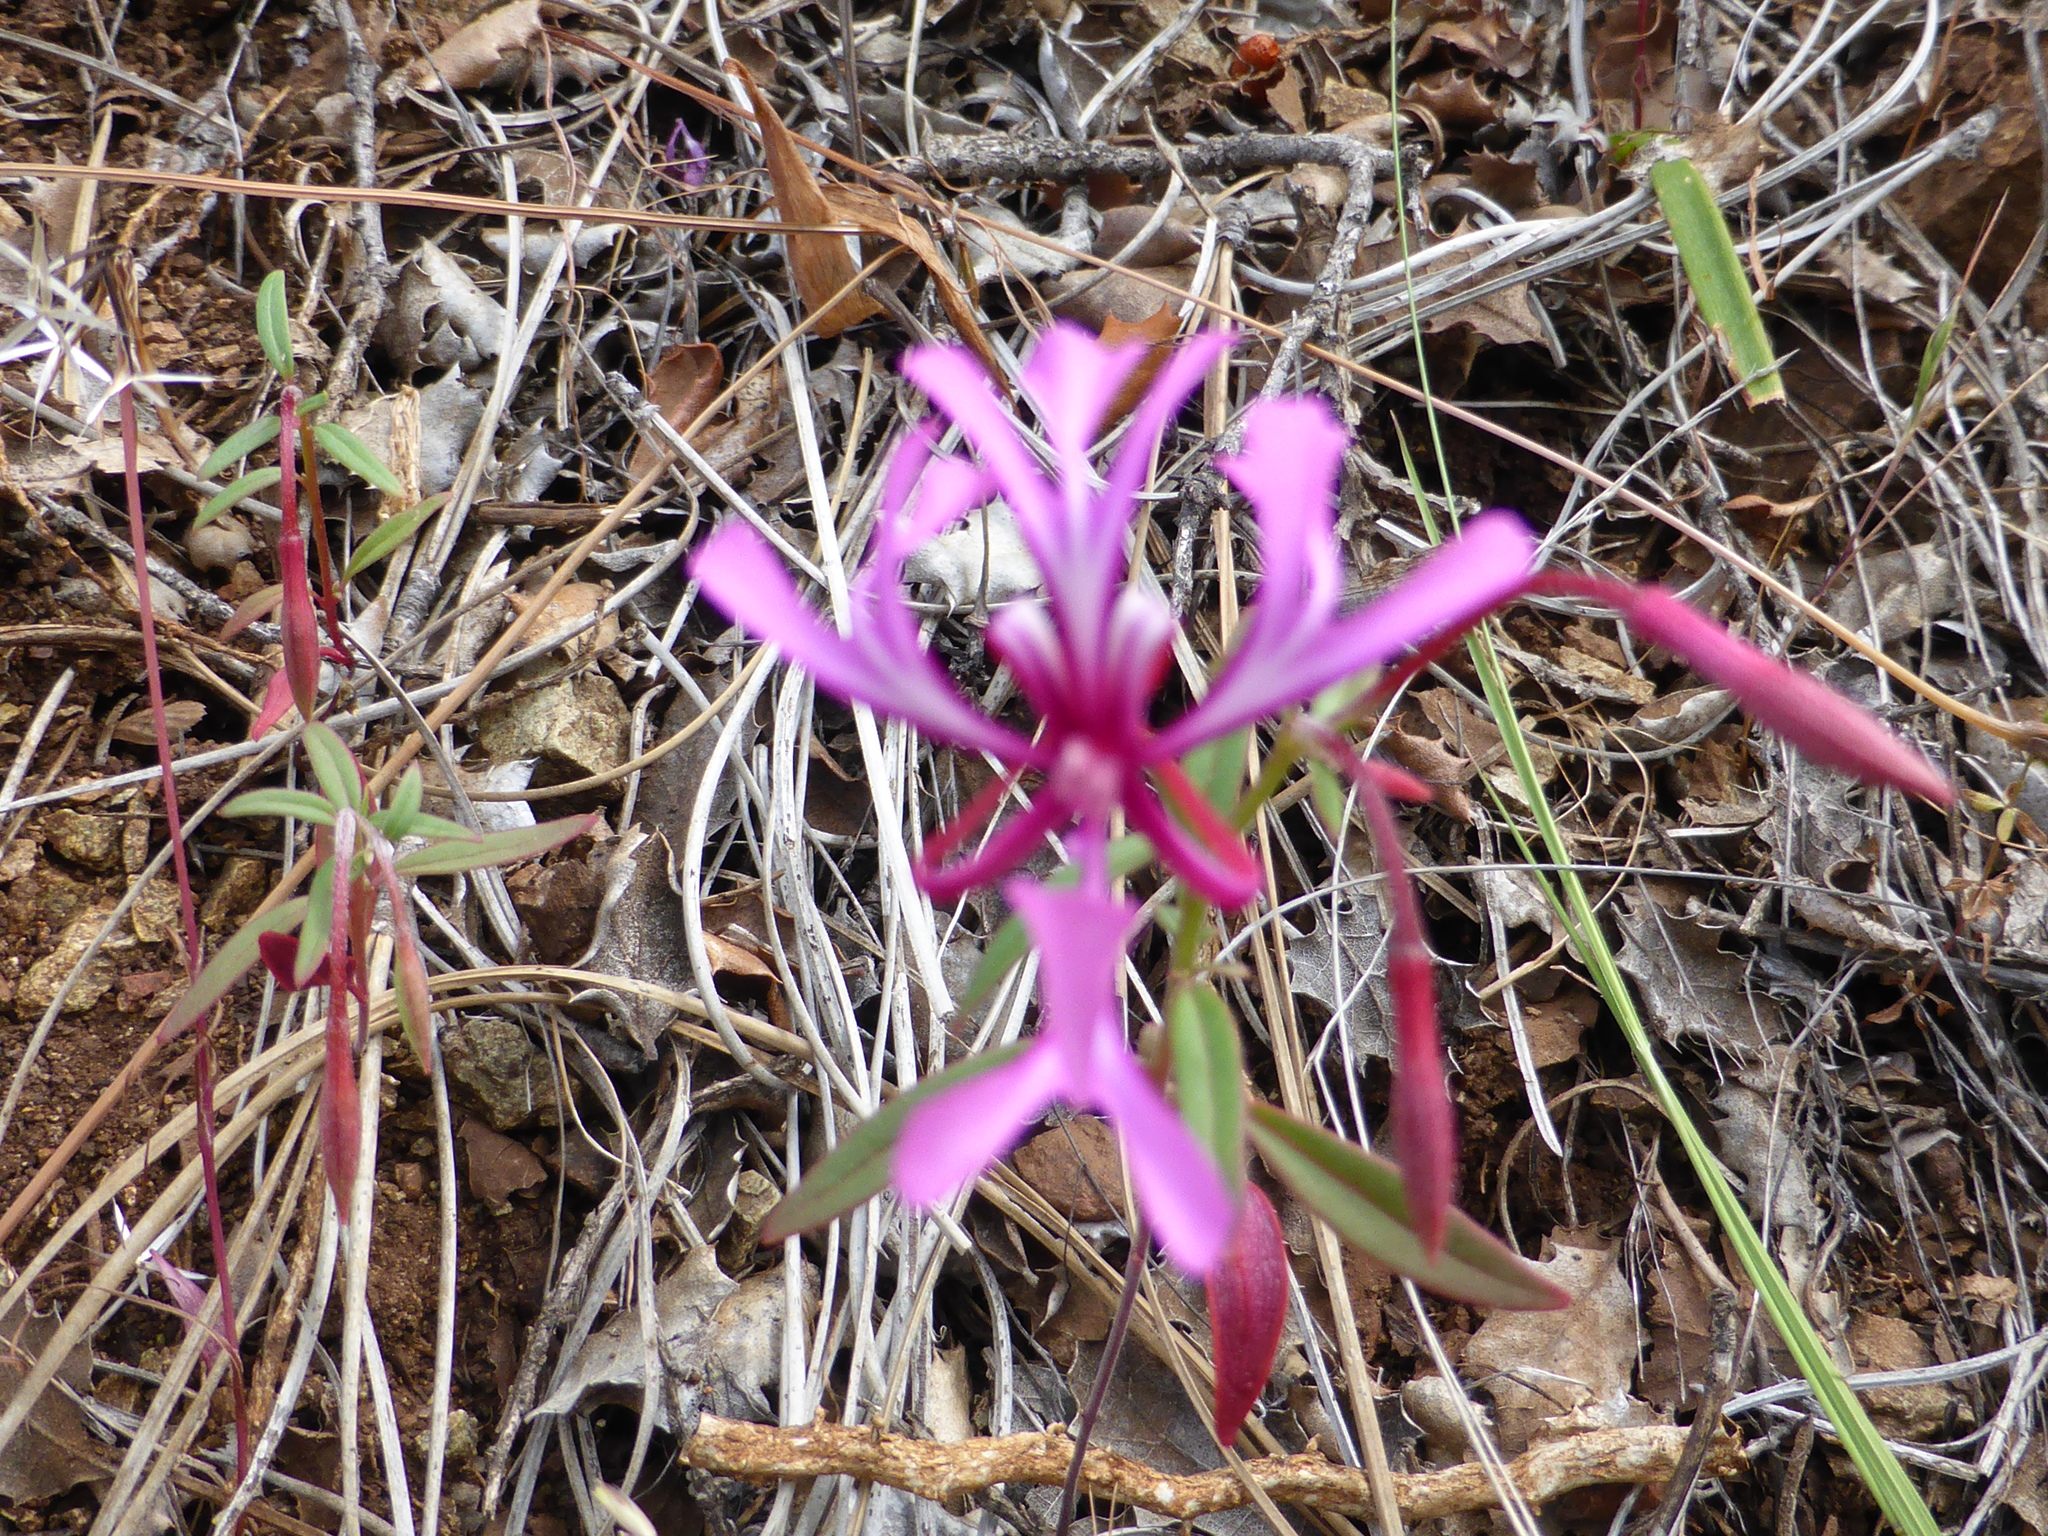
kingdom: Plantae
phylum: Tracheophyta
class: Magnoliopsida
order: Myrtales
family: Onagraceae
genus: Clarkia
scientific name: Clarkia concinna
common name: Red-ribbons
